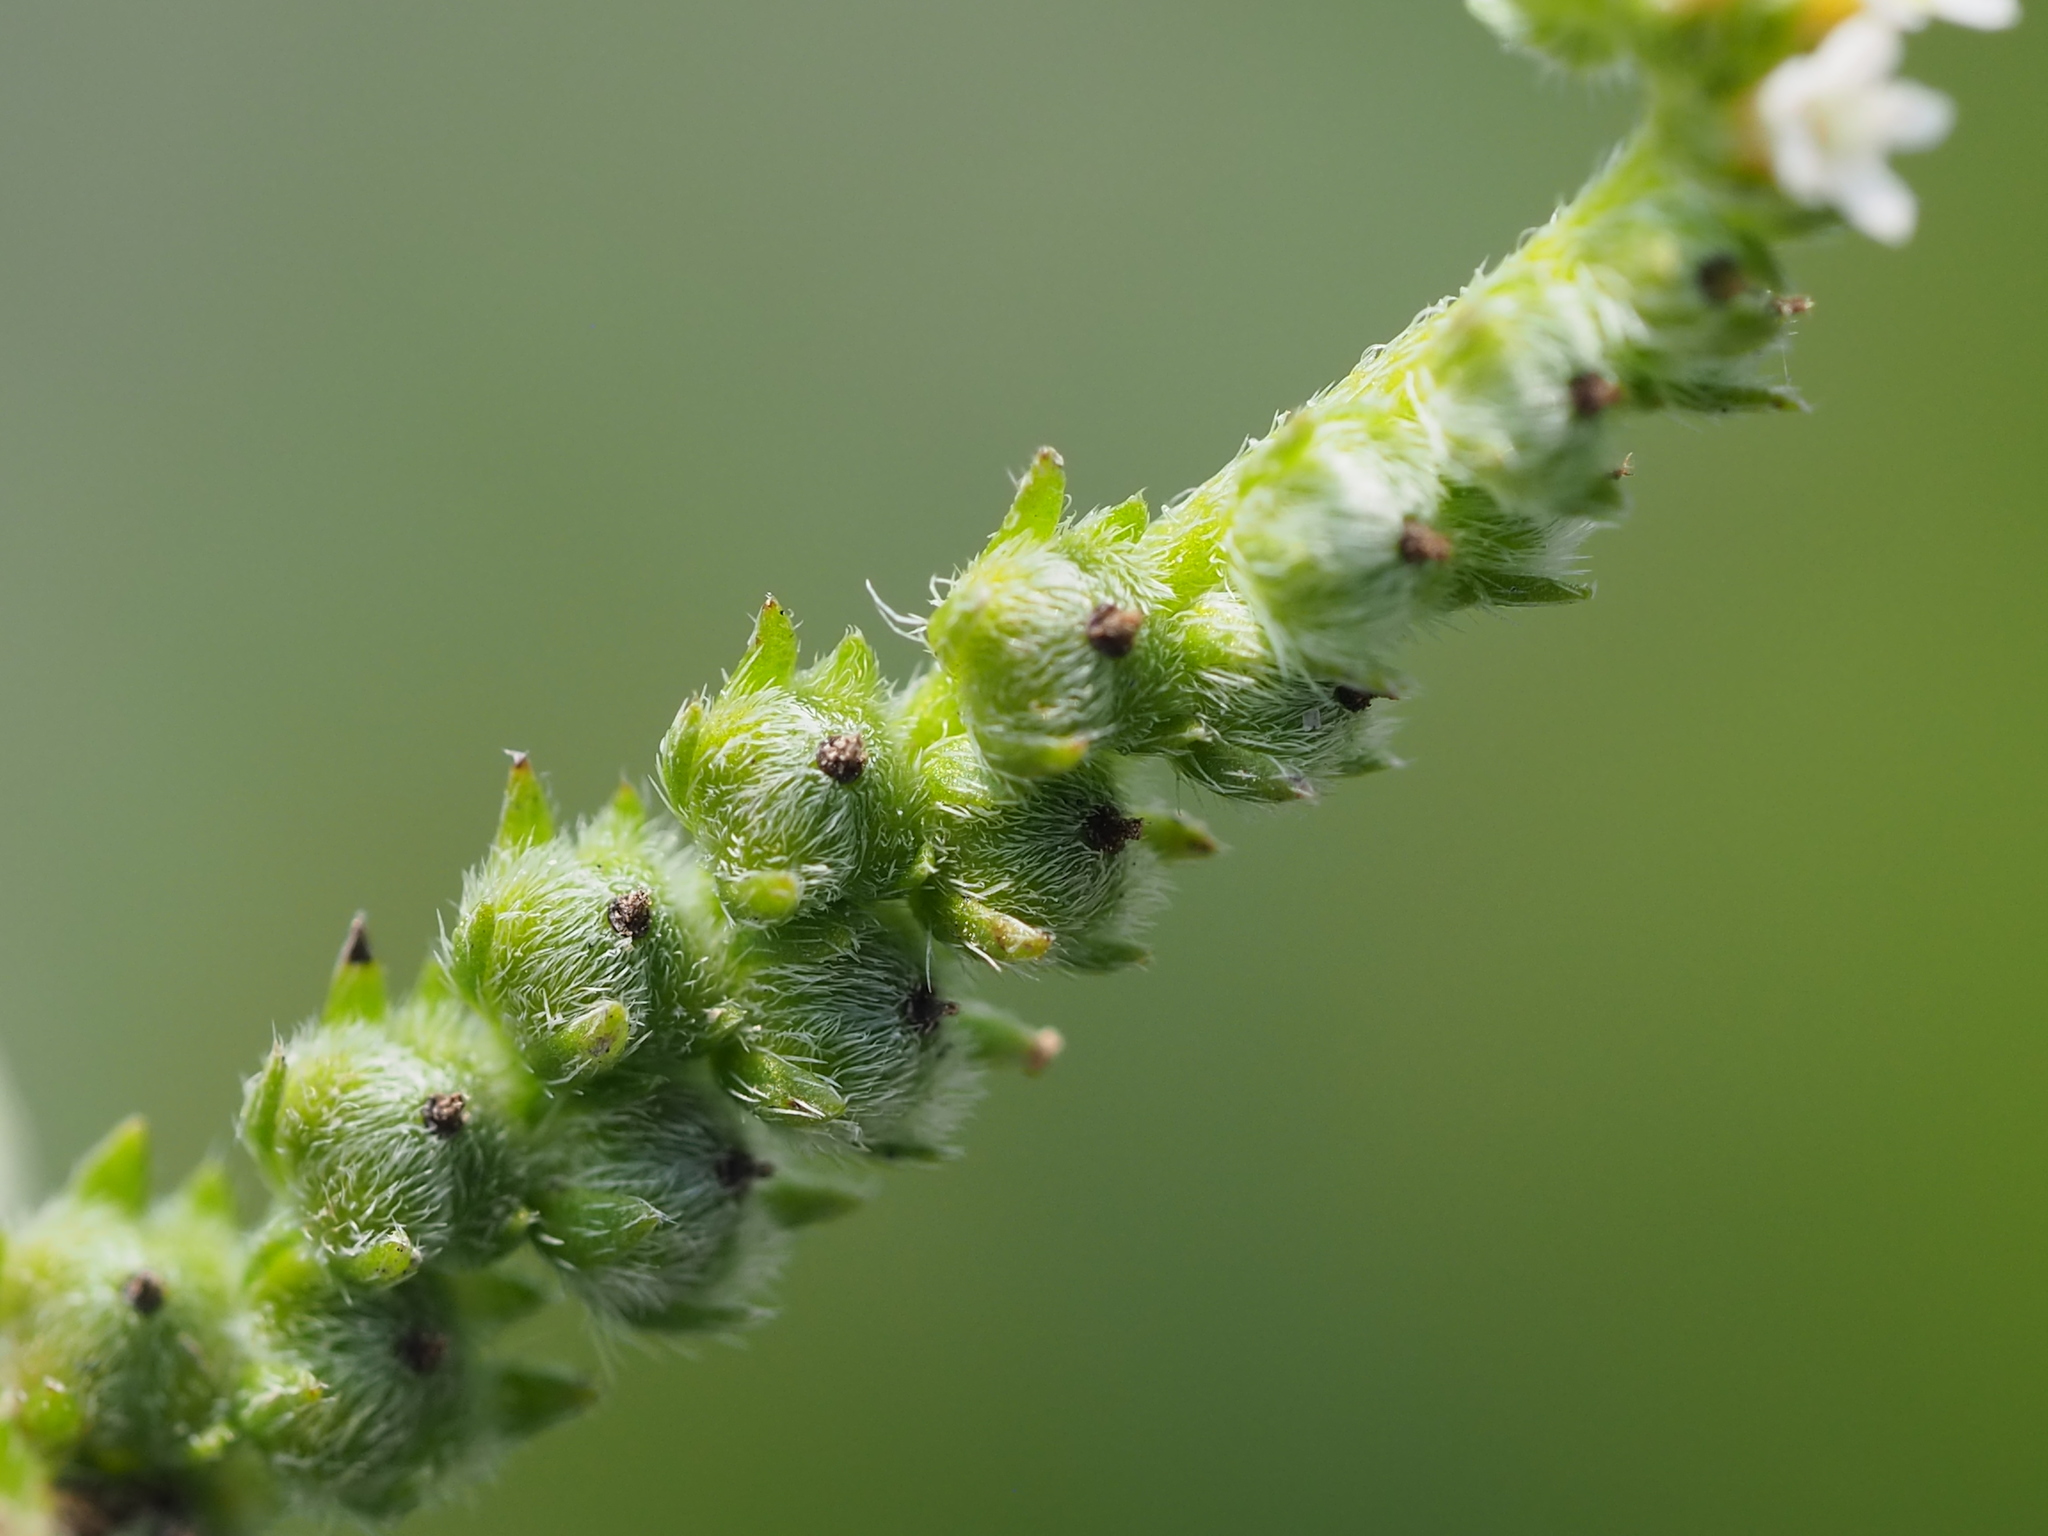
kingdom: Plantae
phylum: Tracheophyta
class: Magnoliopsida
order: Boraginales
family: Heliotropiaceae
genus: Euploca
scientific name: Euploca procumbens
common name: Fourspike heliotrope
